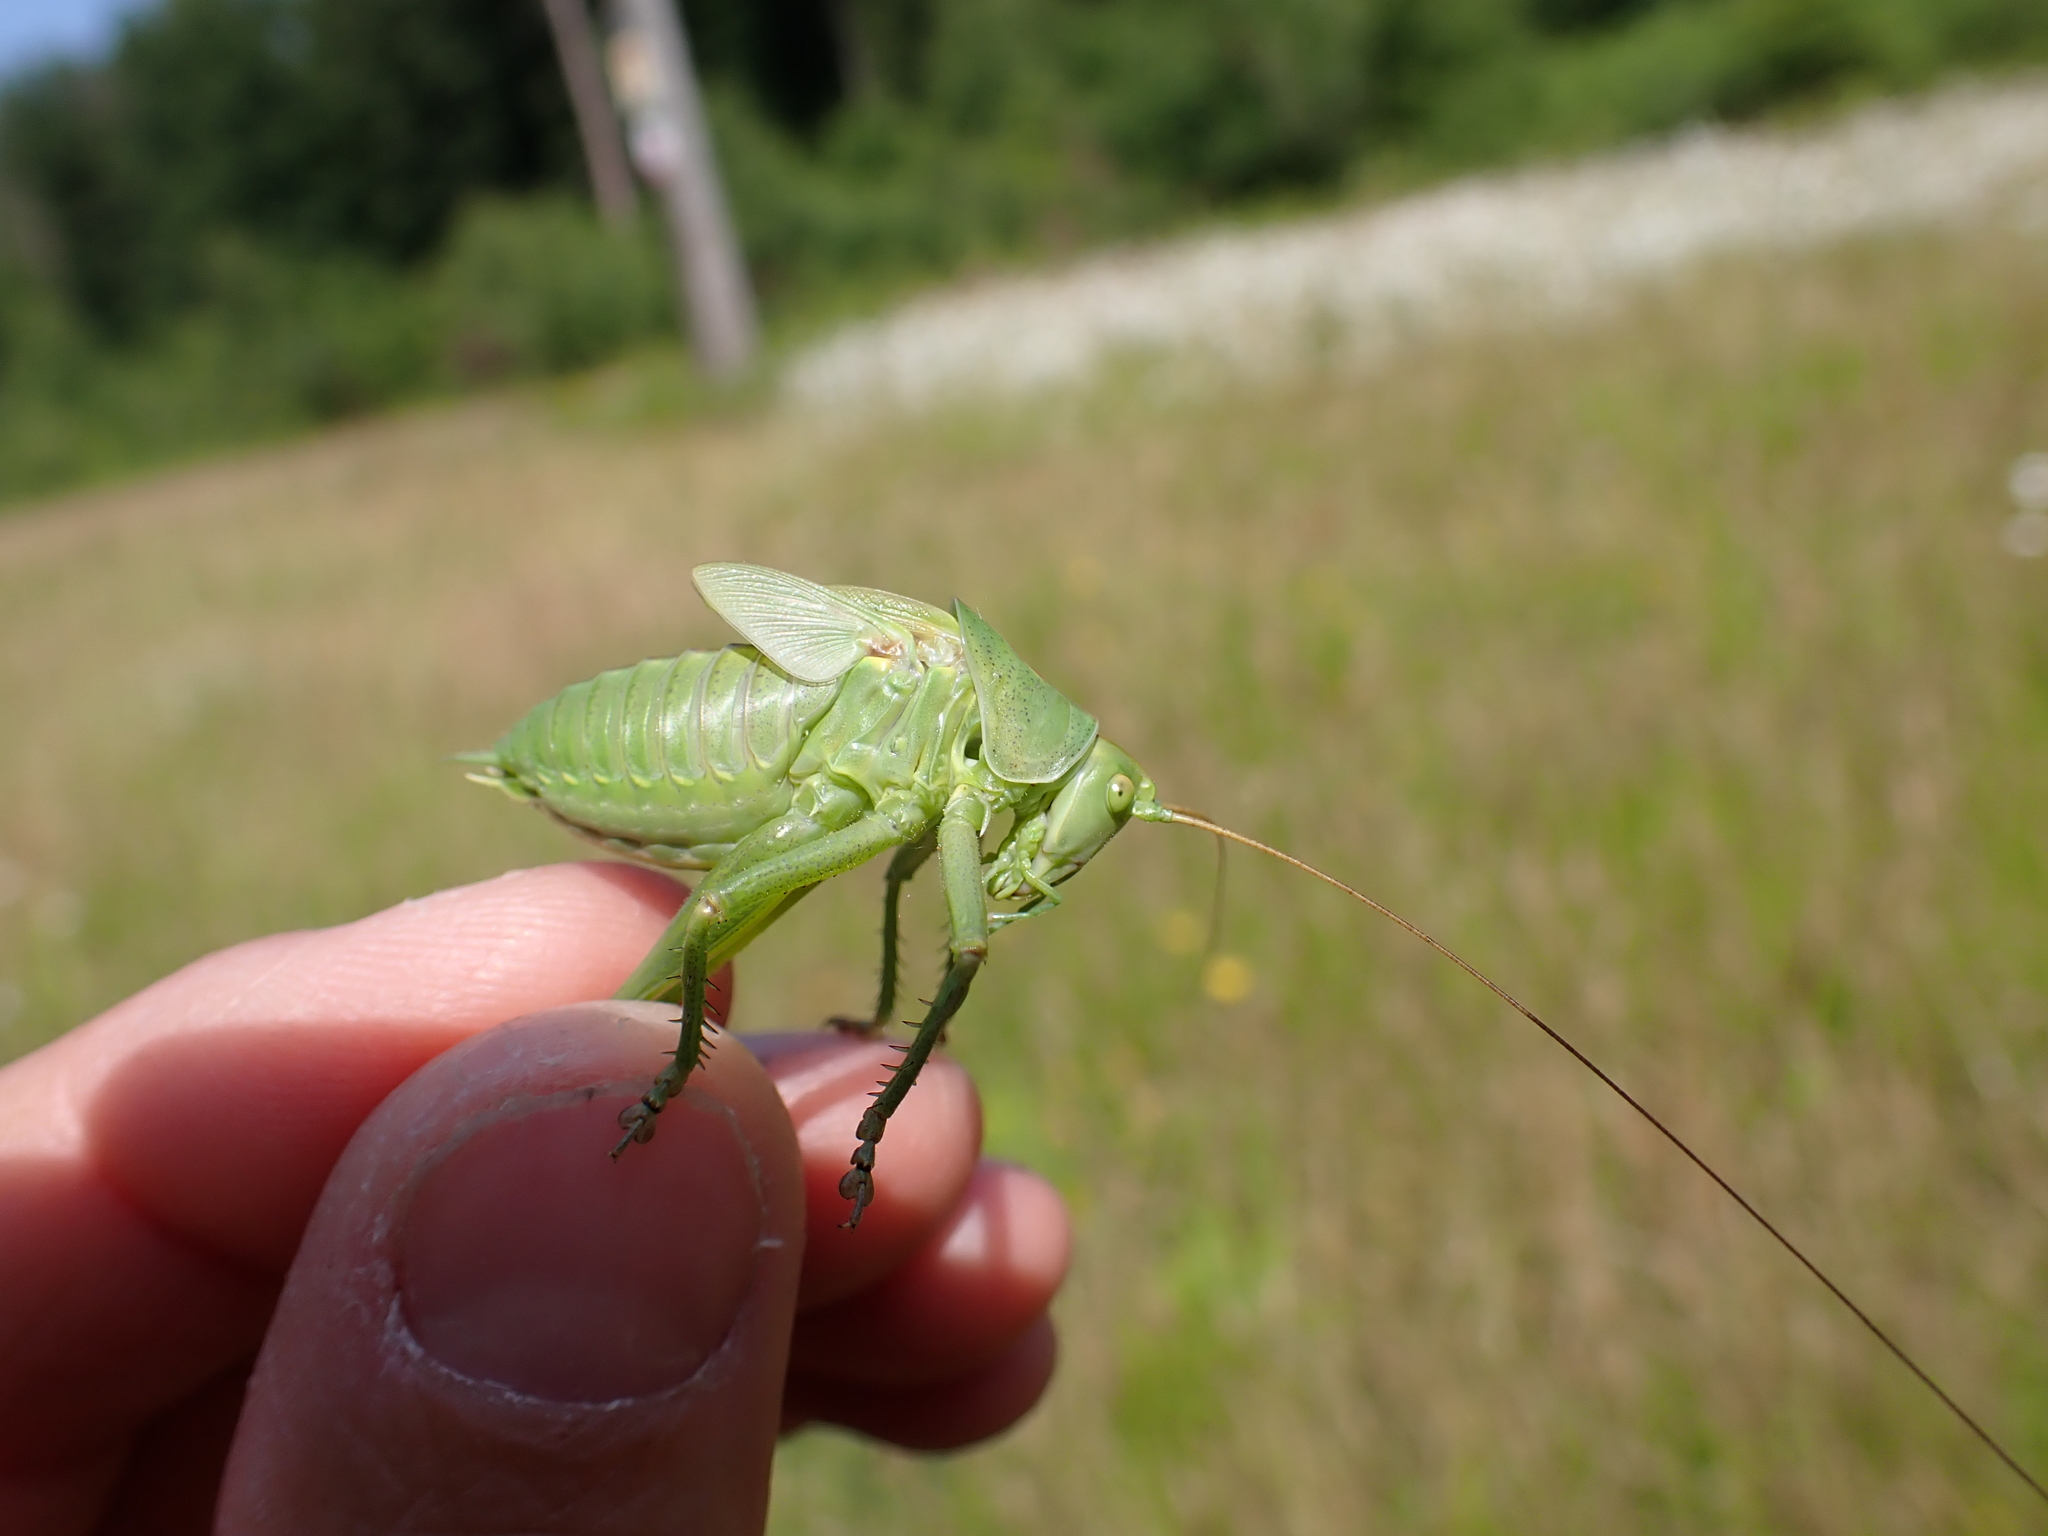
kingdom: Animalia
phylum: Arthropoda
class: Insecta
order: Orthoptera
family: Tettigoniidae
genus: Tettigonia
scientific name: Tettigonia viridissima
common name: Great green bush-cricket
